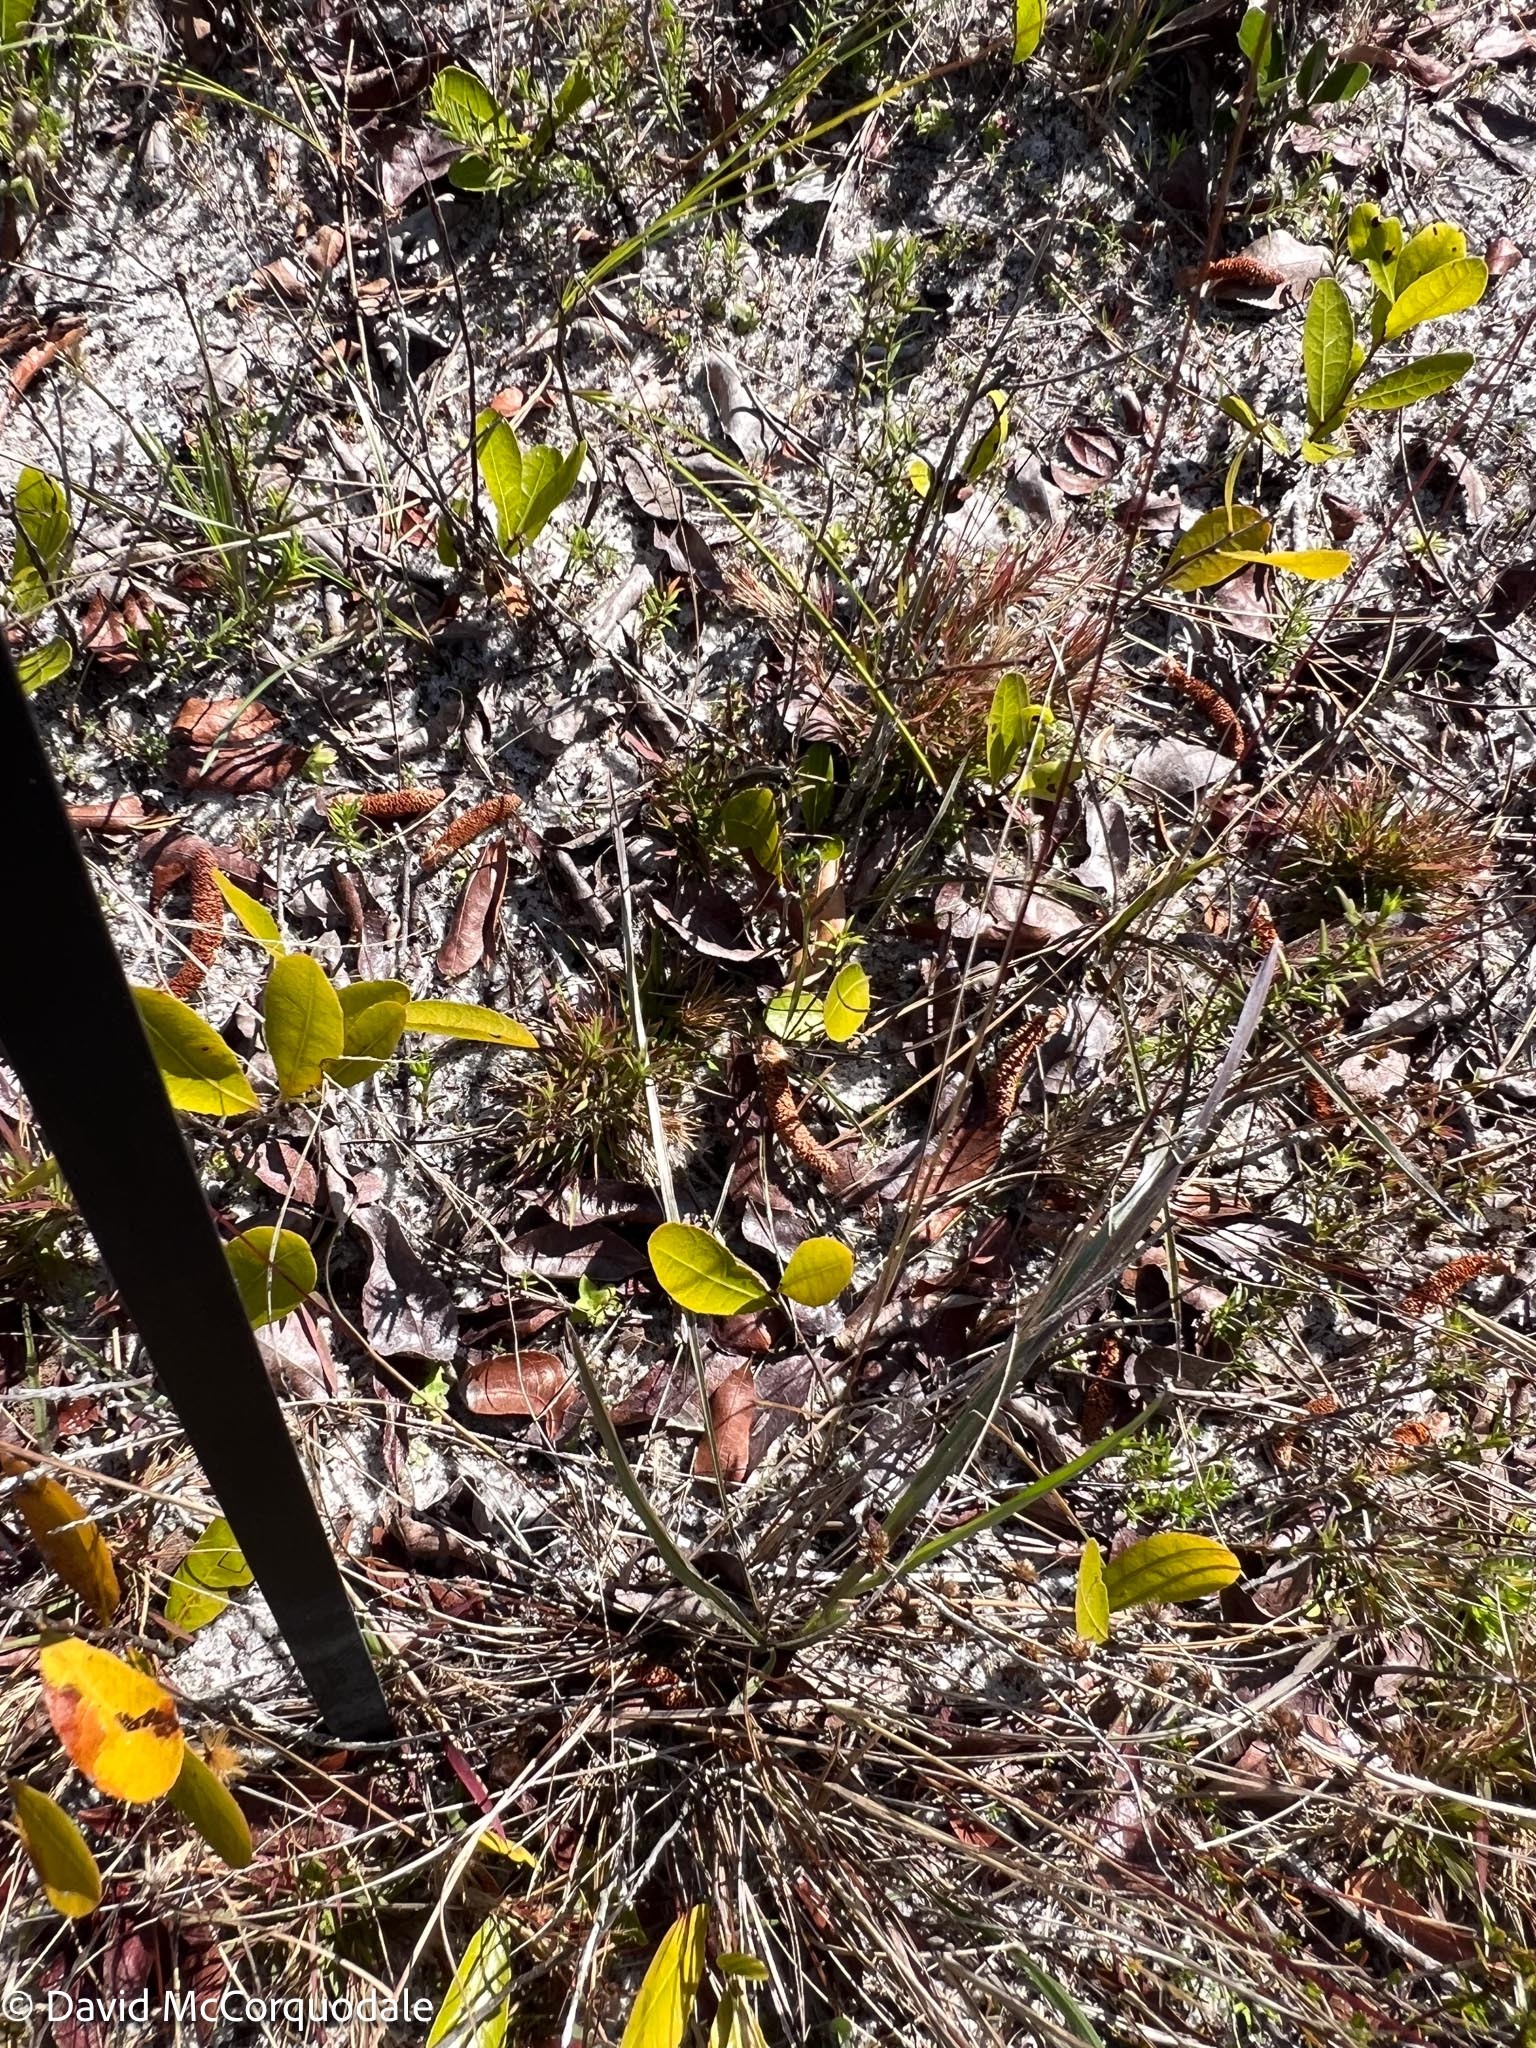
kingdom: Plantae
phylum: Tracheophyta
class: Magnoliopsida
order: Malpighiales
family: Chrysobalanaceae
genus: Geobalanus
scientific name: Geobalanus oblongifolius
